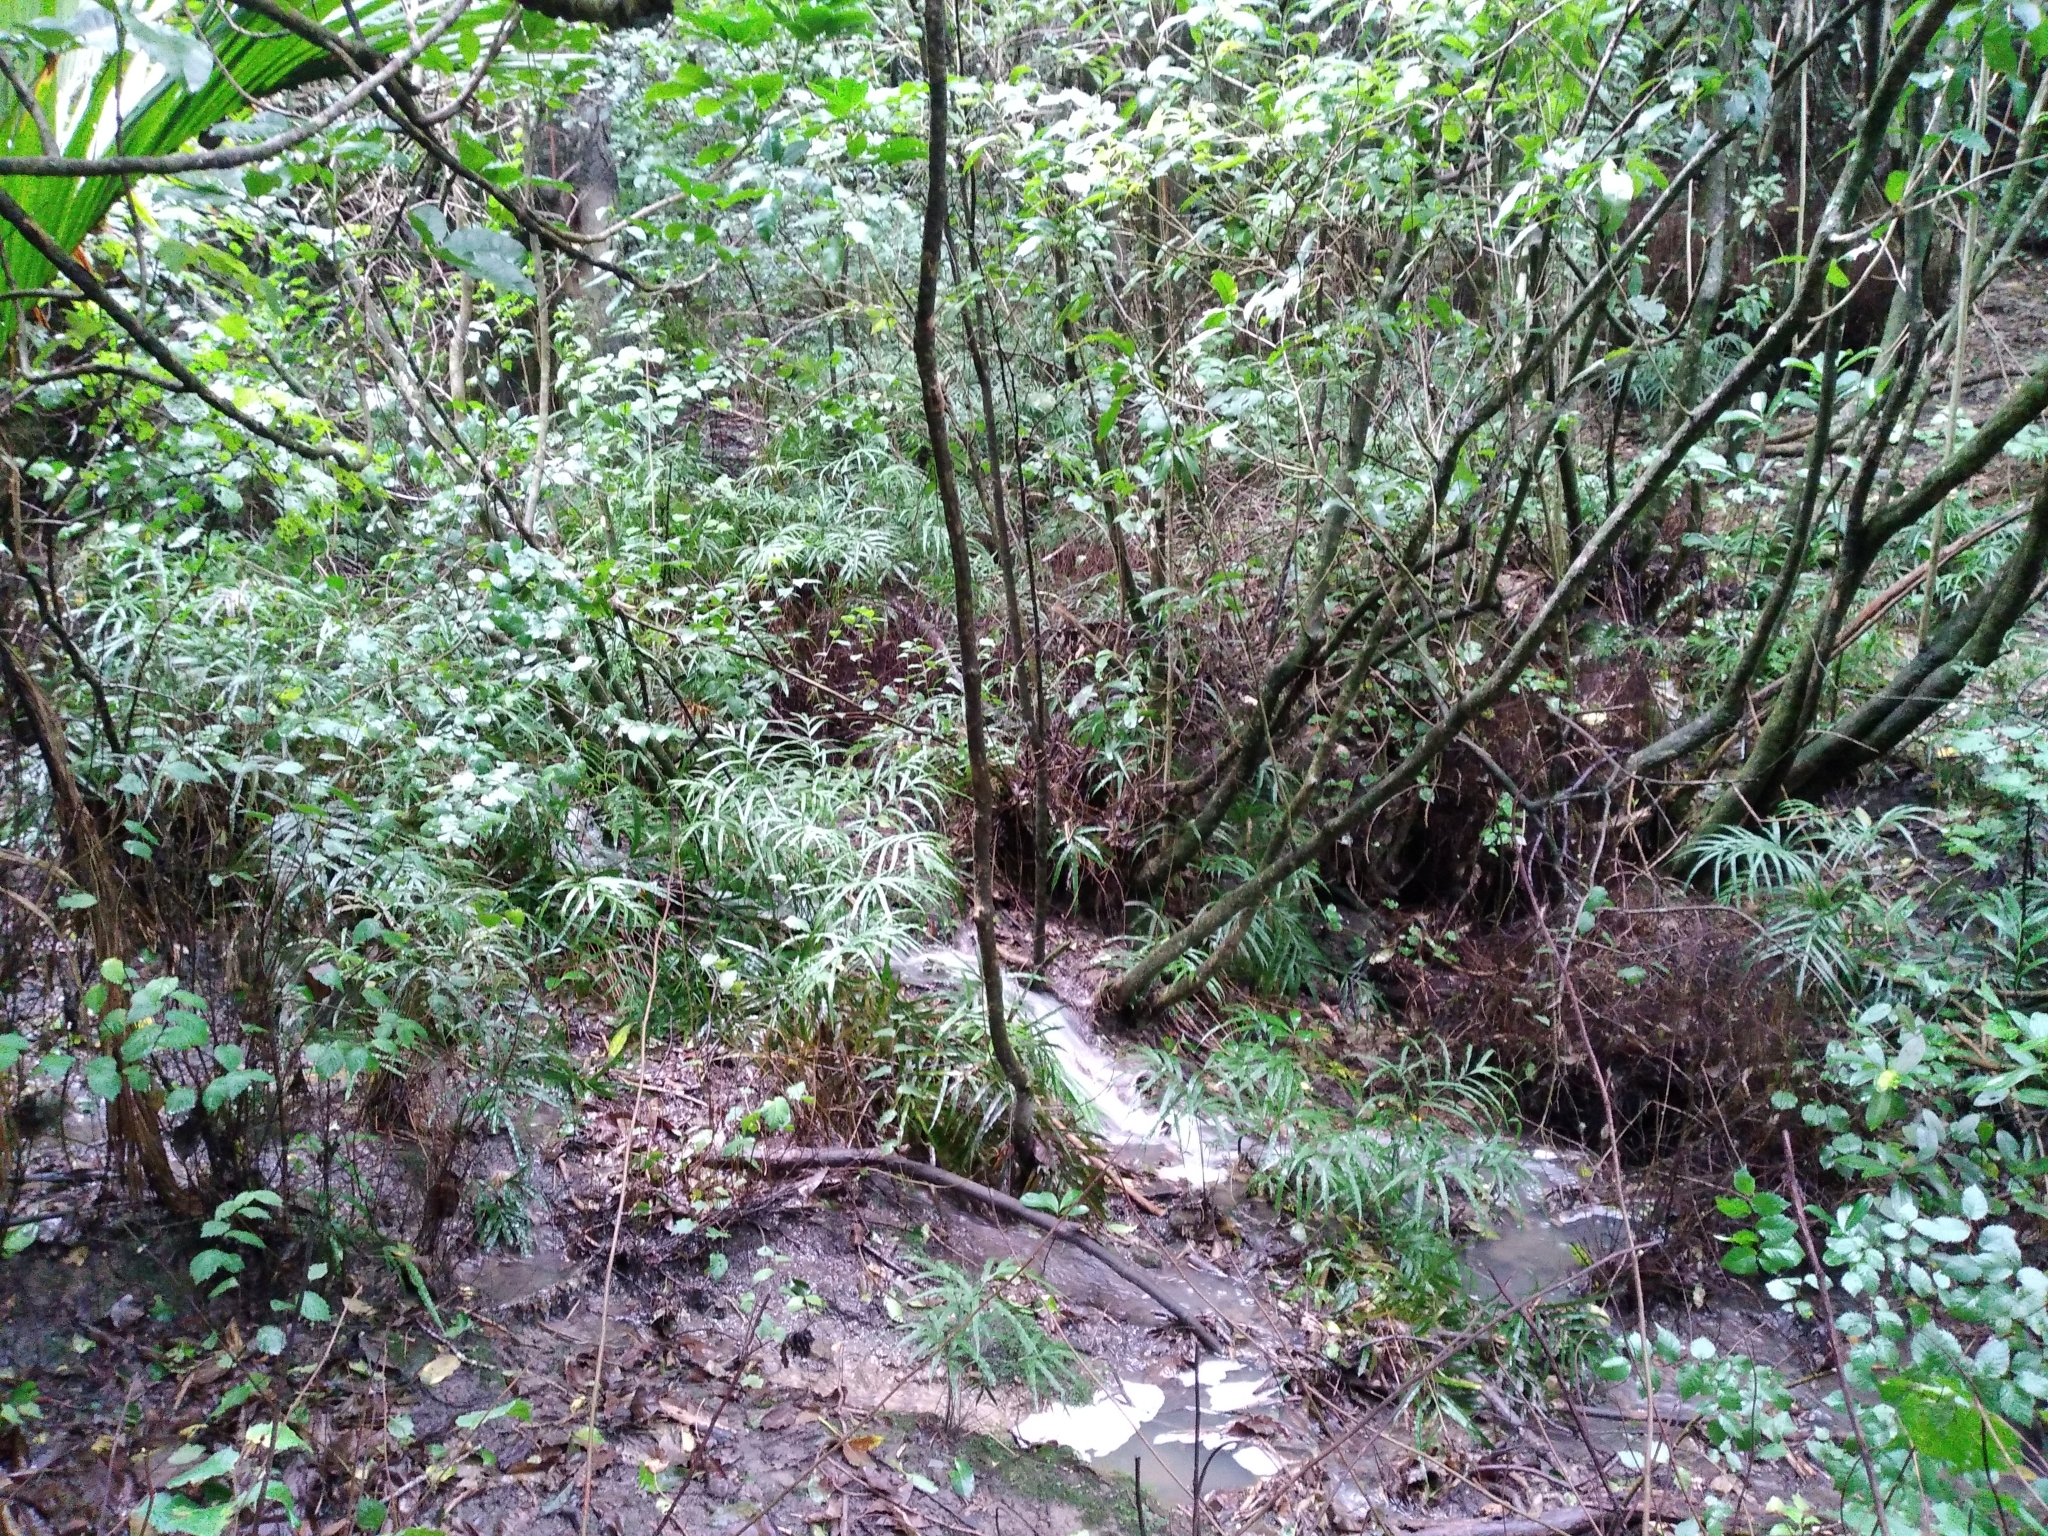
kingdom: Plantae
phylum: Tracheophyta
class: Polypodiopsida
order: Polypodiales
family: Pteridaceae
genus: Pteris
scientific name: Pteris cretica
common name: Ribbon fern
